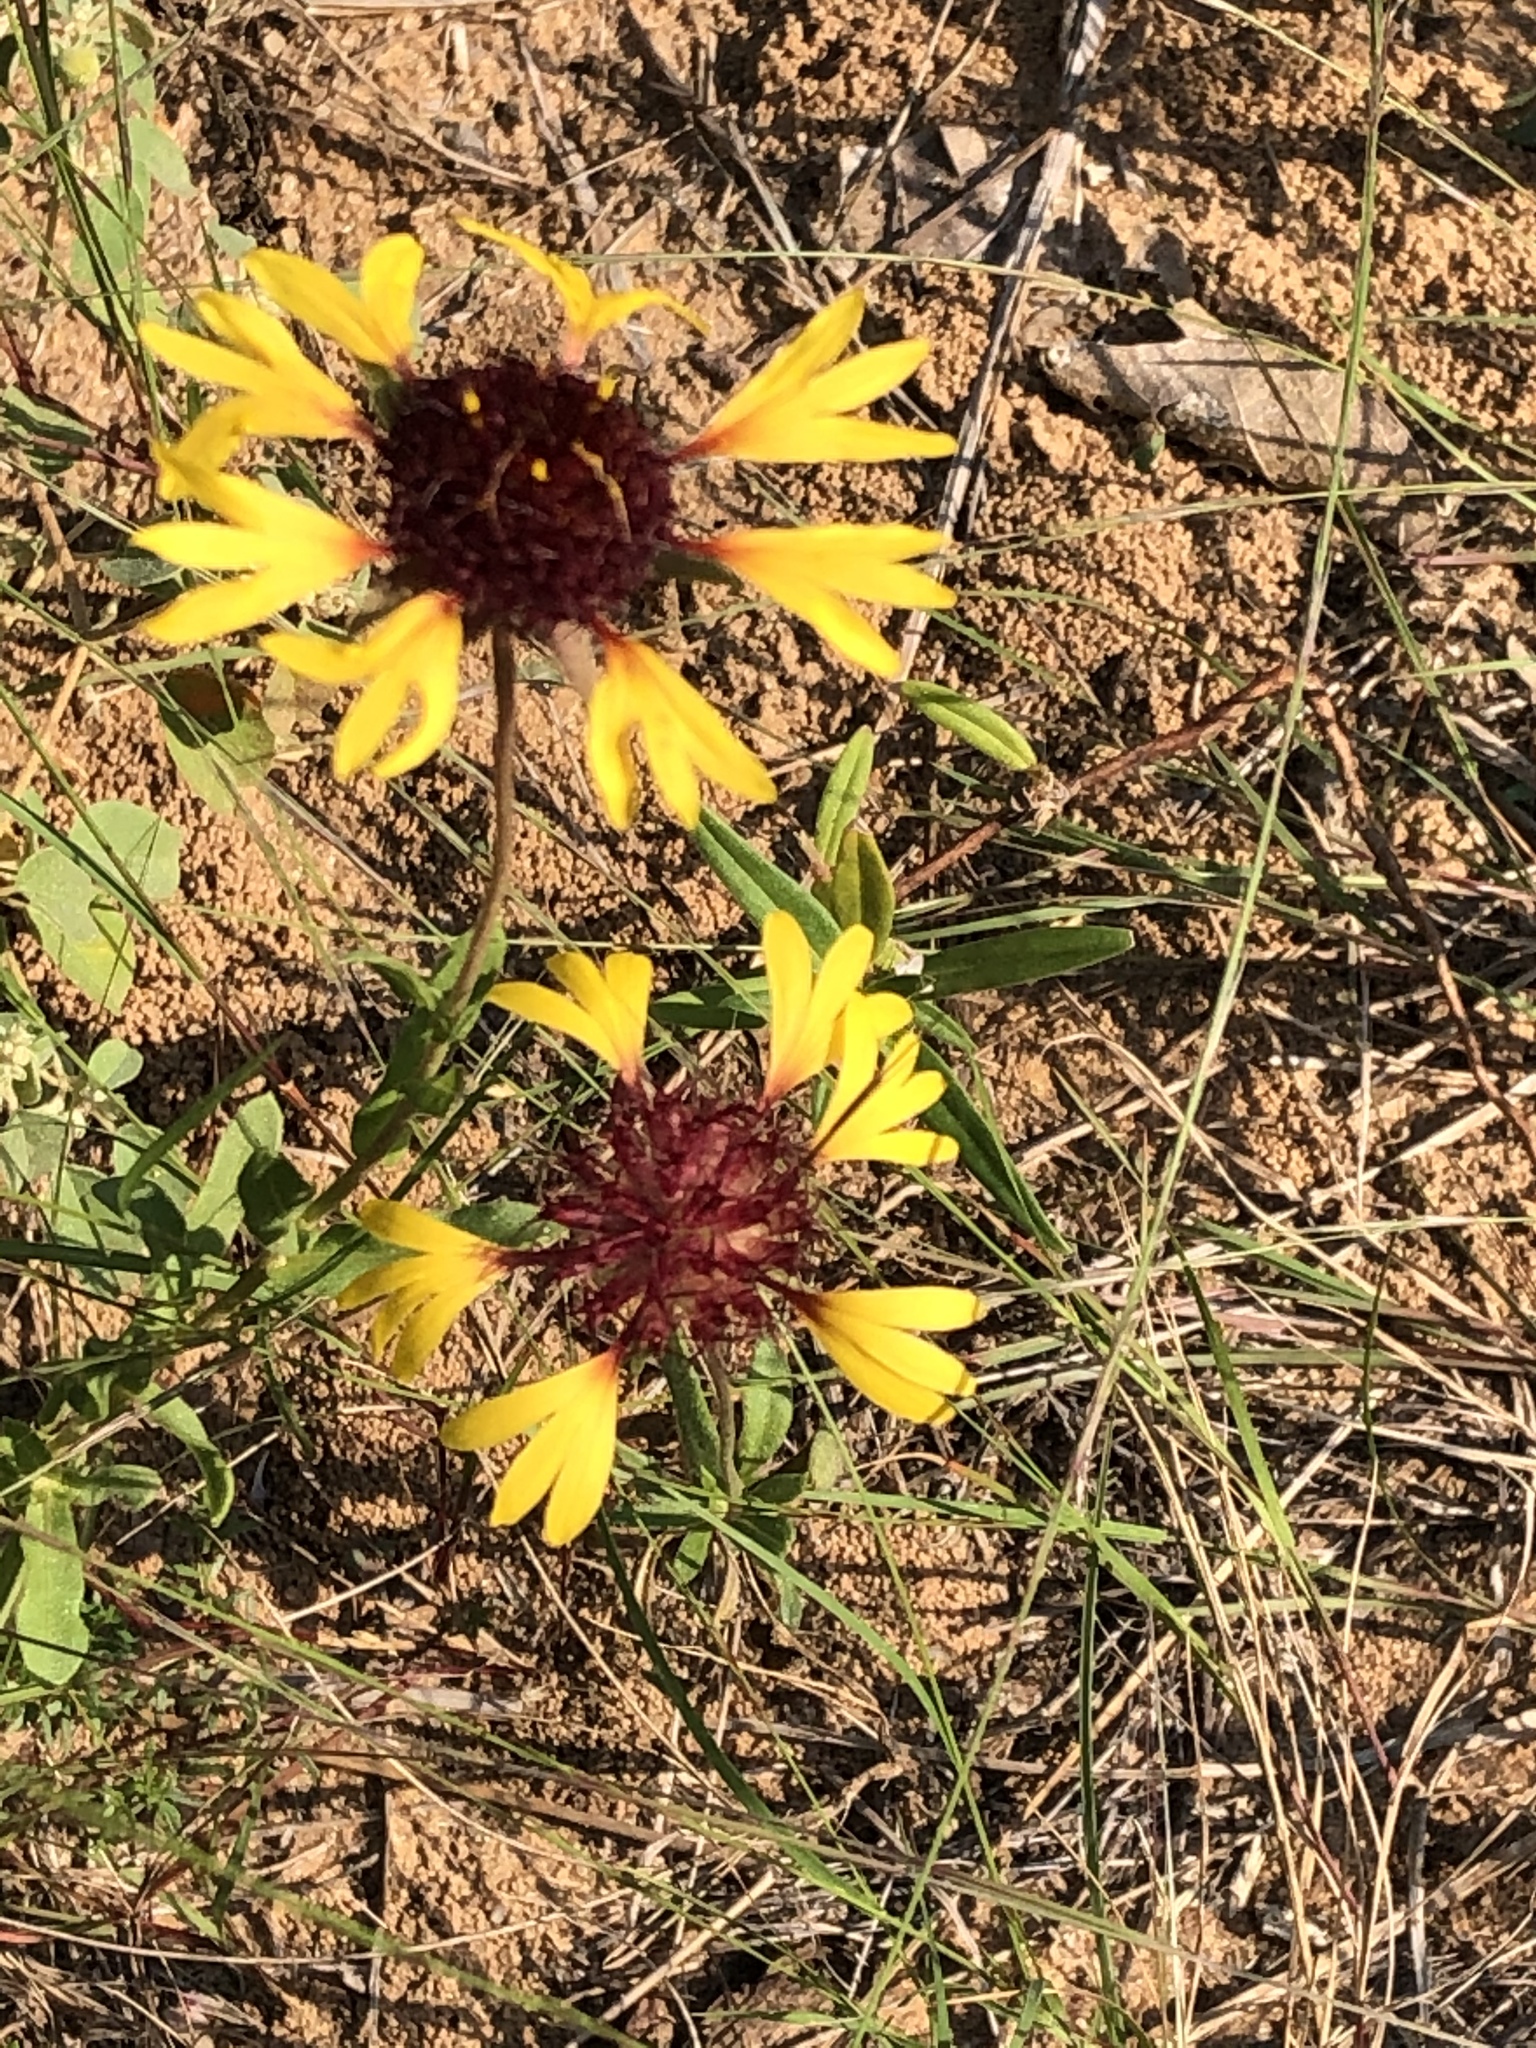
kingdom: Plantae
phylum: Tracheophyta
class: Magnoliopsida
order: Asterales
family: Asteraceae
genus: Gaillardia
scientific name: Gaillardia aestivalis
